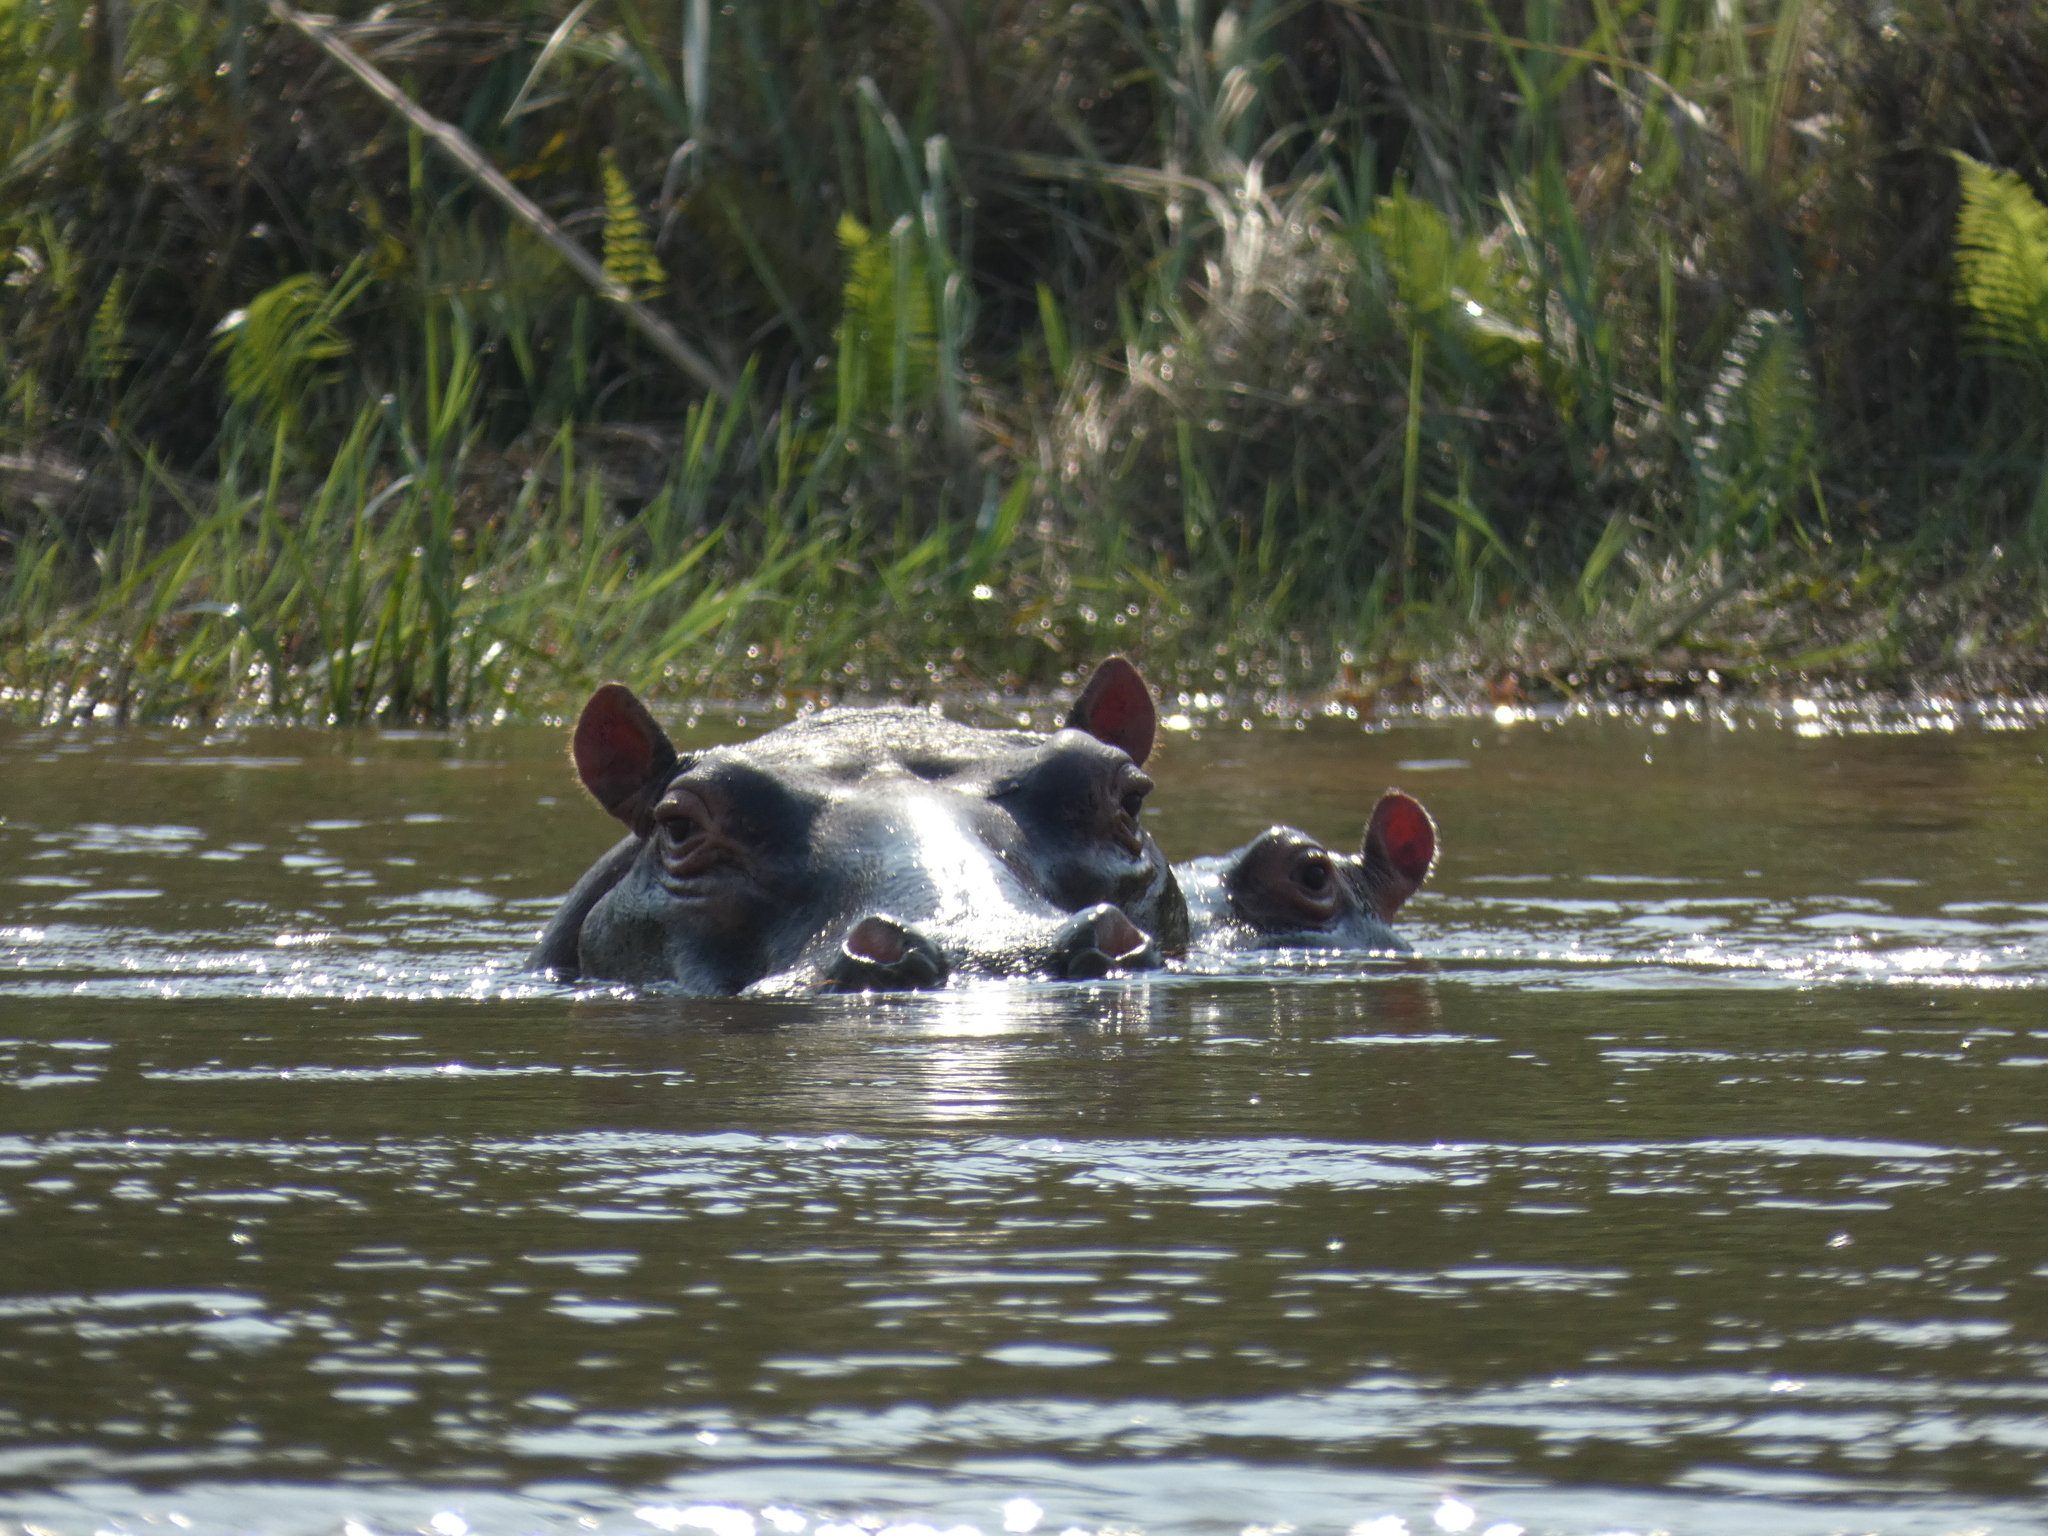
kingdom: Animalia
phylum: Chordata
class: Mammalia
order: Artiodactyla
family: Hippopotamidae
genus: Hippopotamus
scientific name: Hippopotamus amphibius
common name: Common hippopotamus
